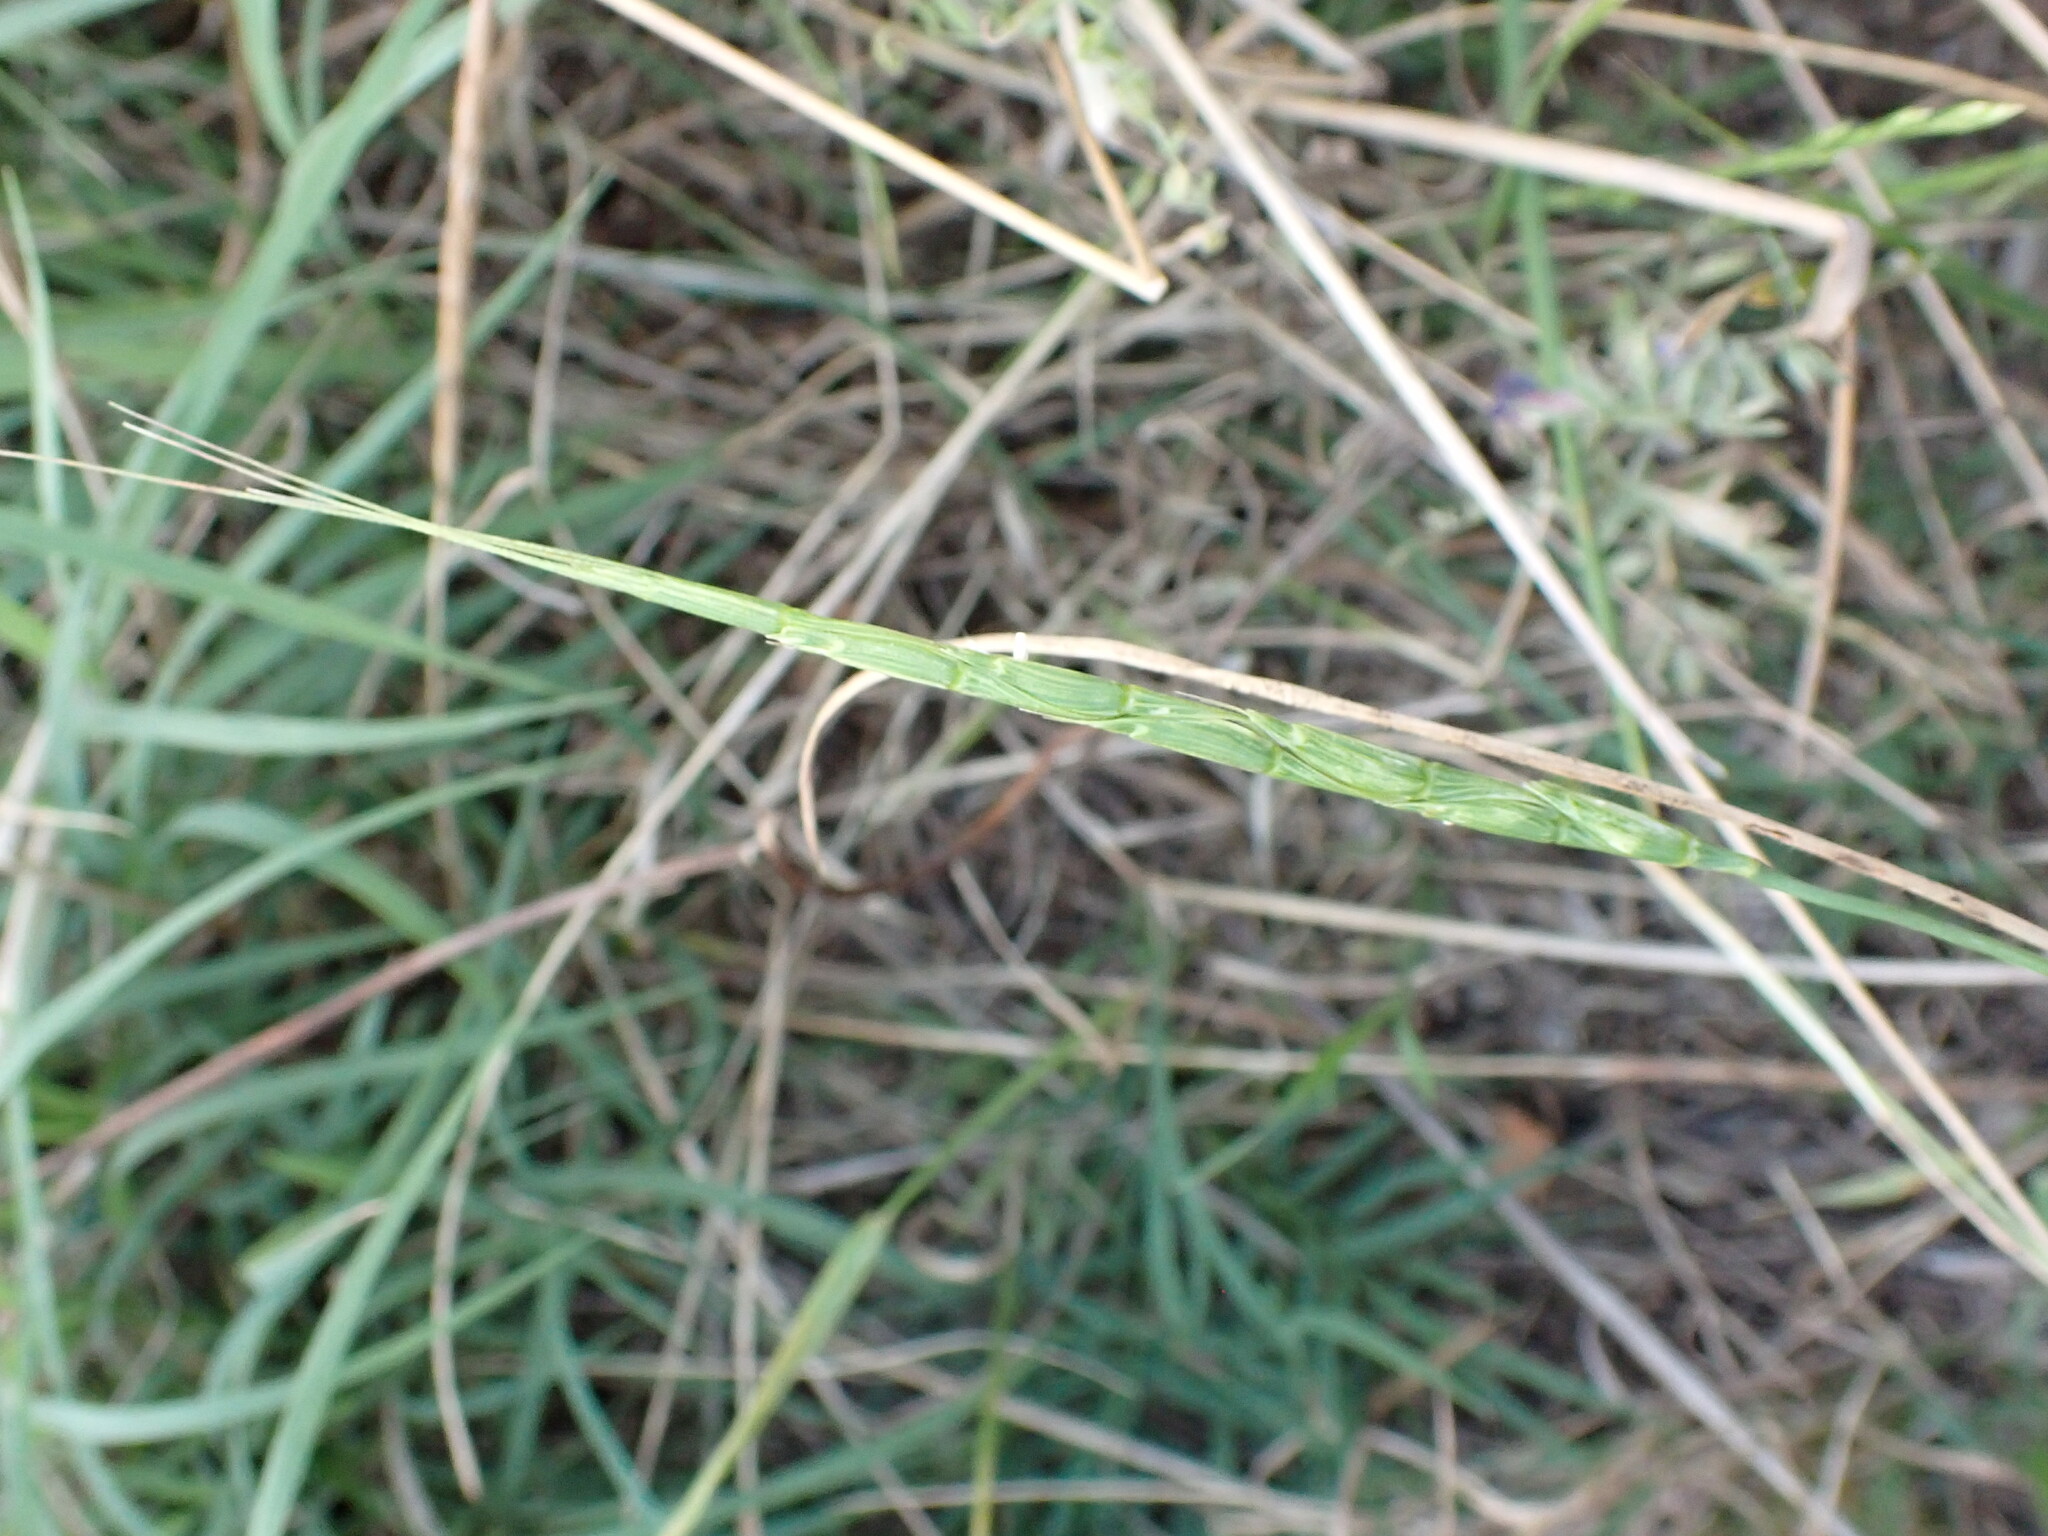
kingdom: Plantae
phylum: Tracheophyta
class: Liliopsida
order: Poales
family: Poaceae
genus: Aegilops
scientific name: Aegilops cylindrica
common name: Jointed goatgrass
